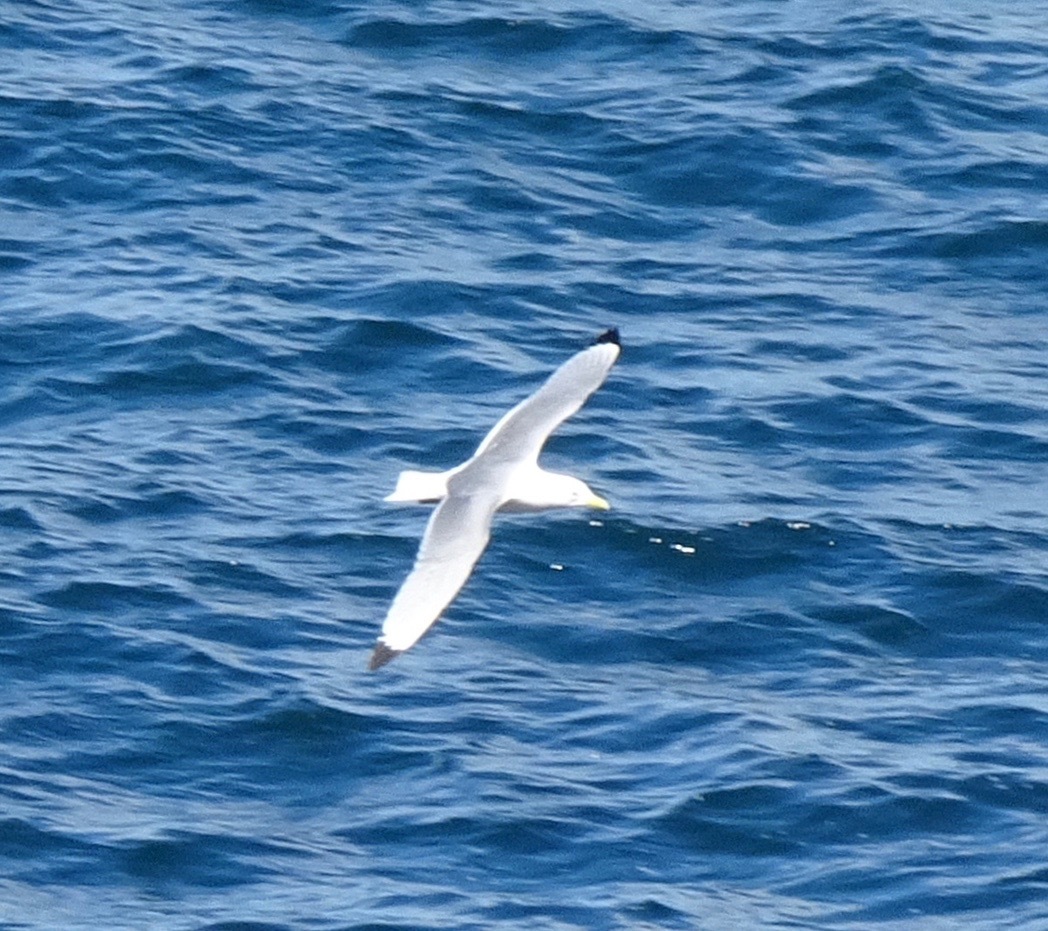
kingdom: Animalia
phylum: Chordata
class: Aves
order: Charadriiformes
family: Laridae
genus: Larus
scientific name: Larus argentatus
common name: Herring gull
